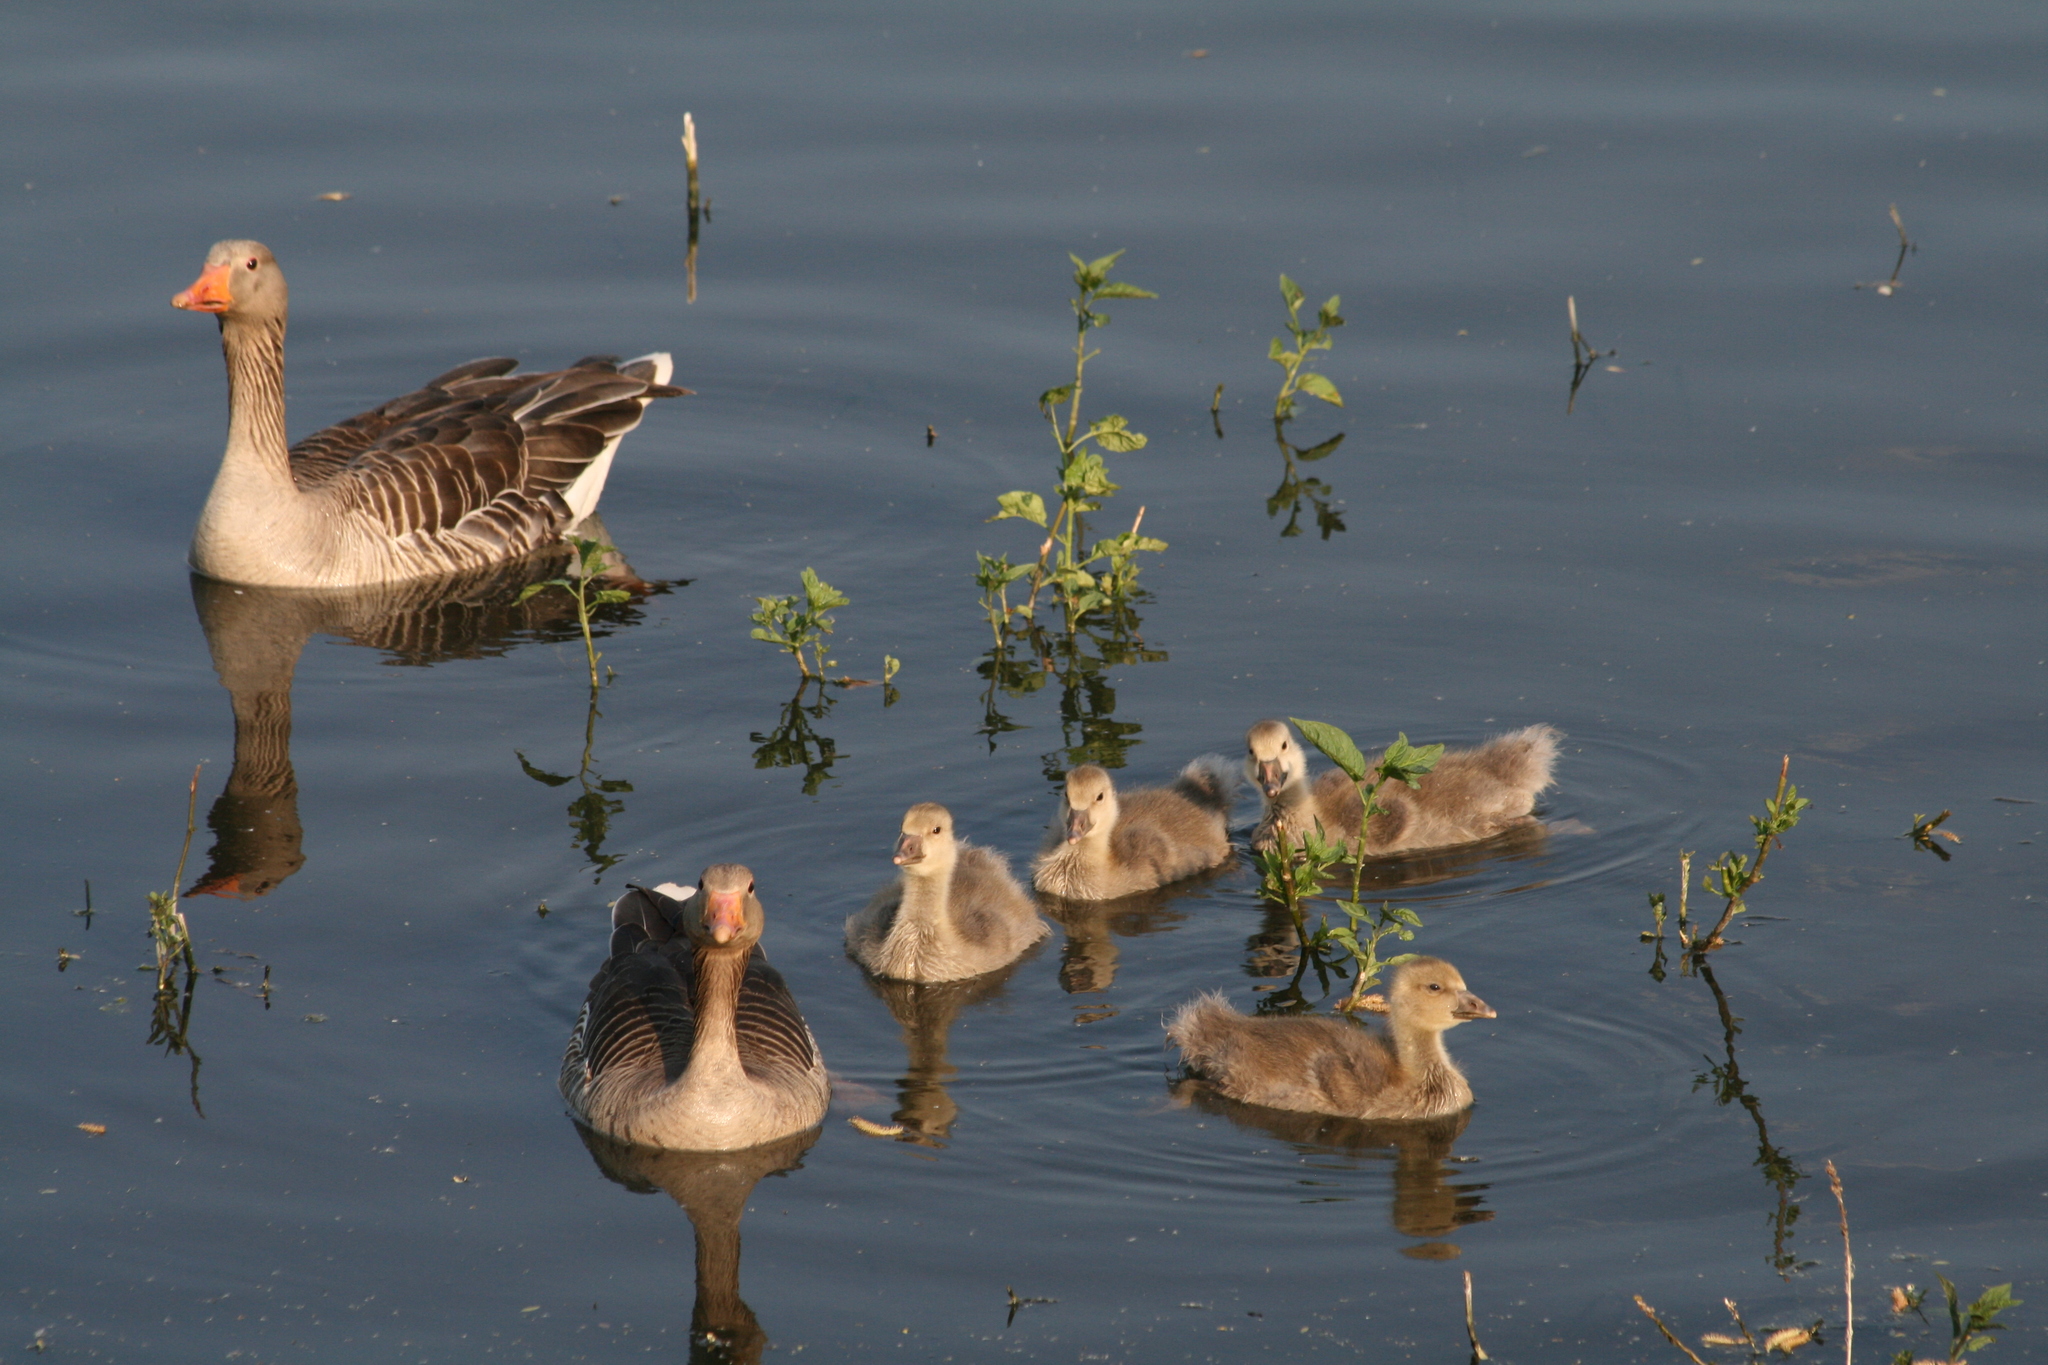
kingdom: Animalia
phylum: Chordata
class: Aves
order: Anseriformes
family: Anatidae
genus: Anser
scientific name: Anser anser
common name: Greylag goose
